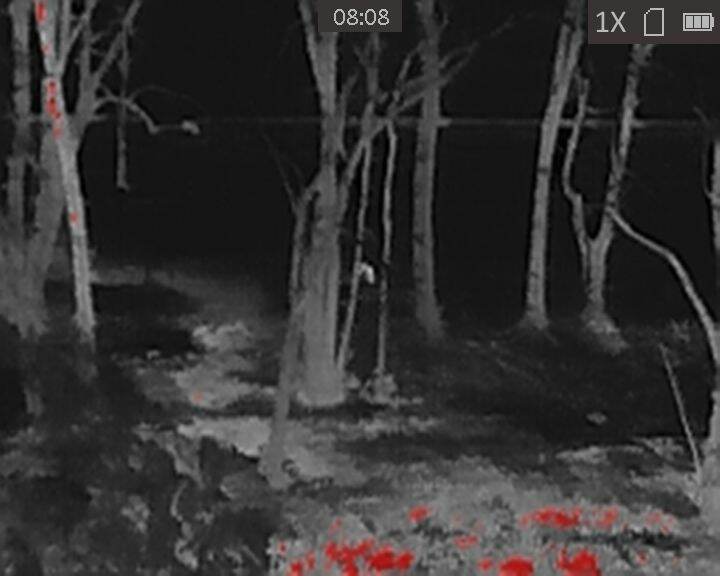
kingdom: Animalia
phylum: Chordata
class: Mammalia
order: Artiodactyla
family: Cervidae
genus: Odocoileus
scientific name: Odocoileus virginianus
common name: White-tailed deer
